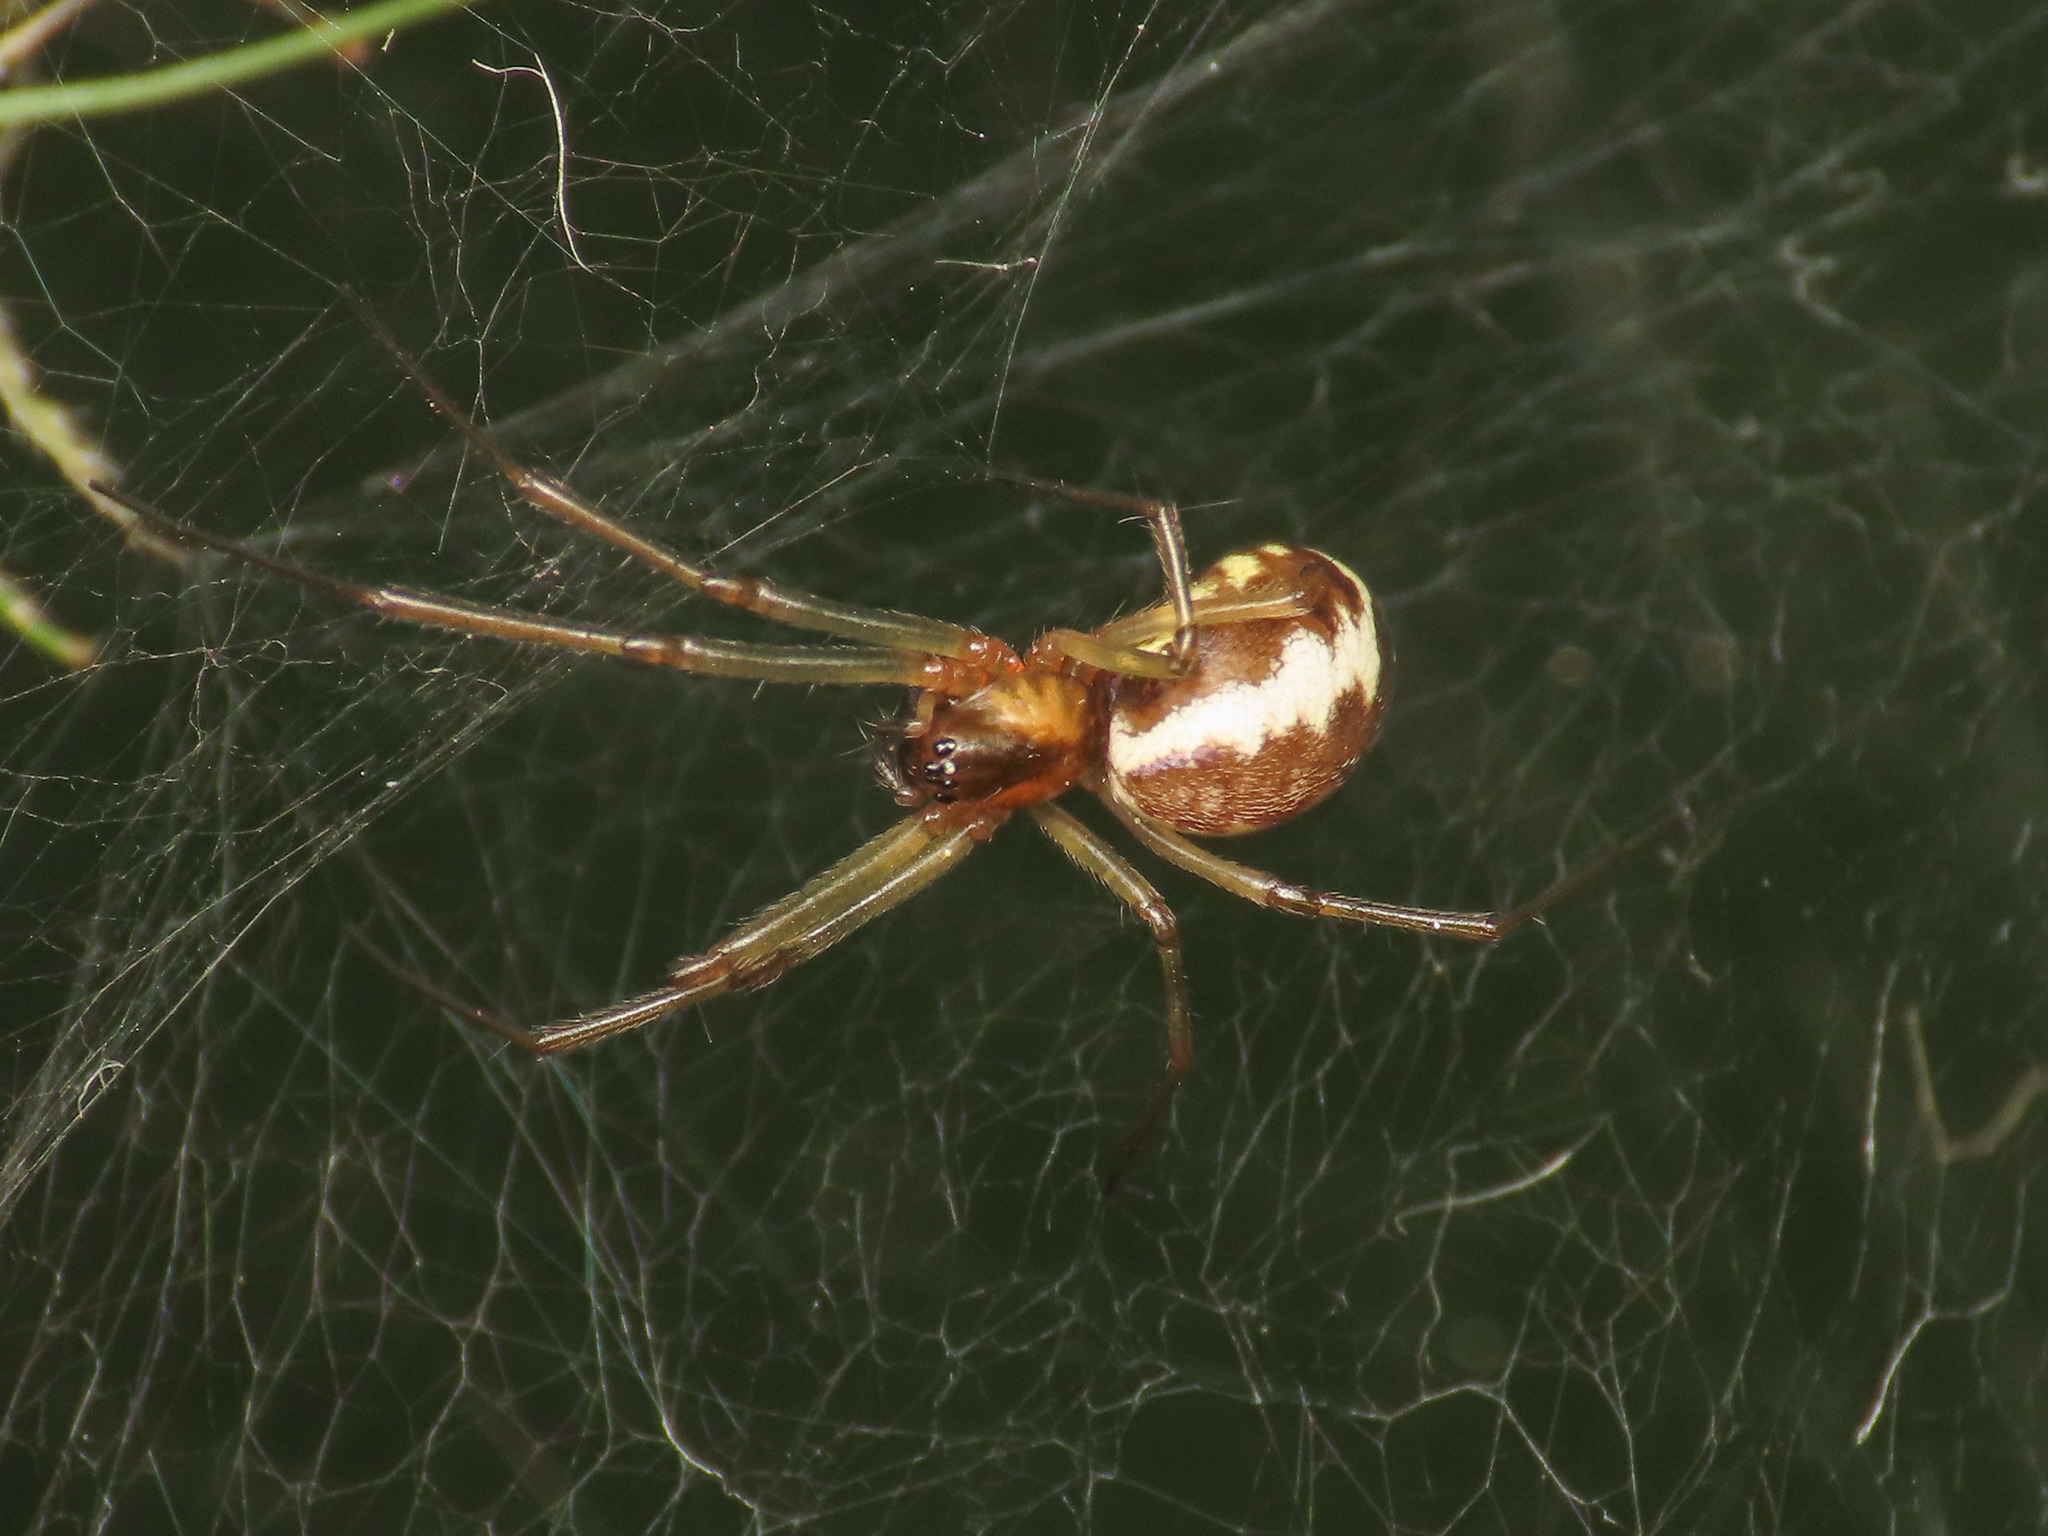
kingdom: Animalia
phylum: Arthropoda
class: Arachnida
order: Araneae
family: Linyphiidae
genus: Neriene
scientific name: Neriene peltata
